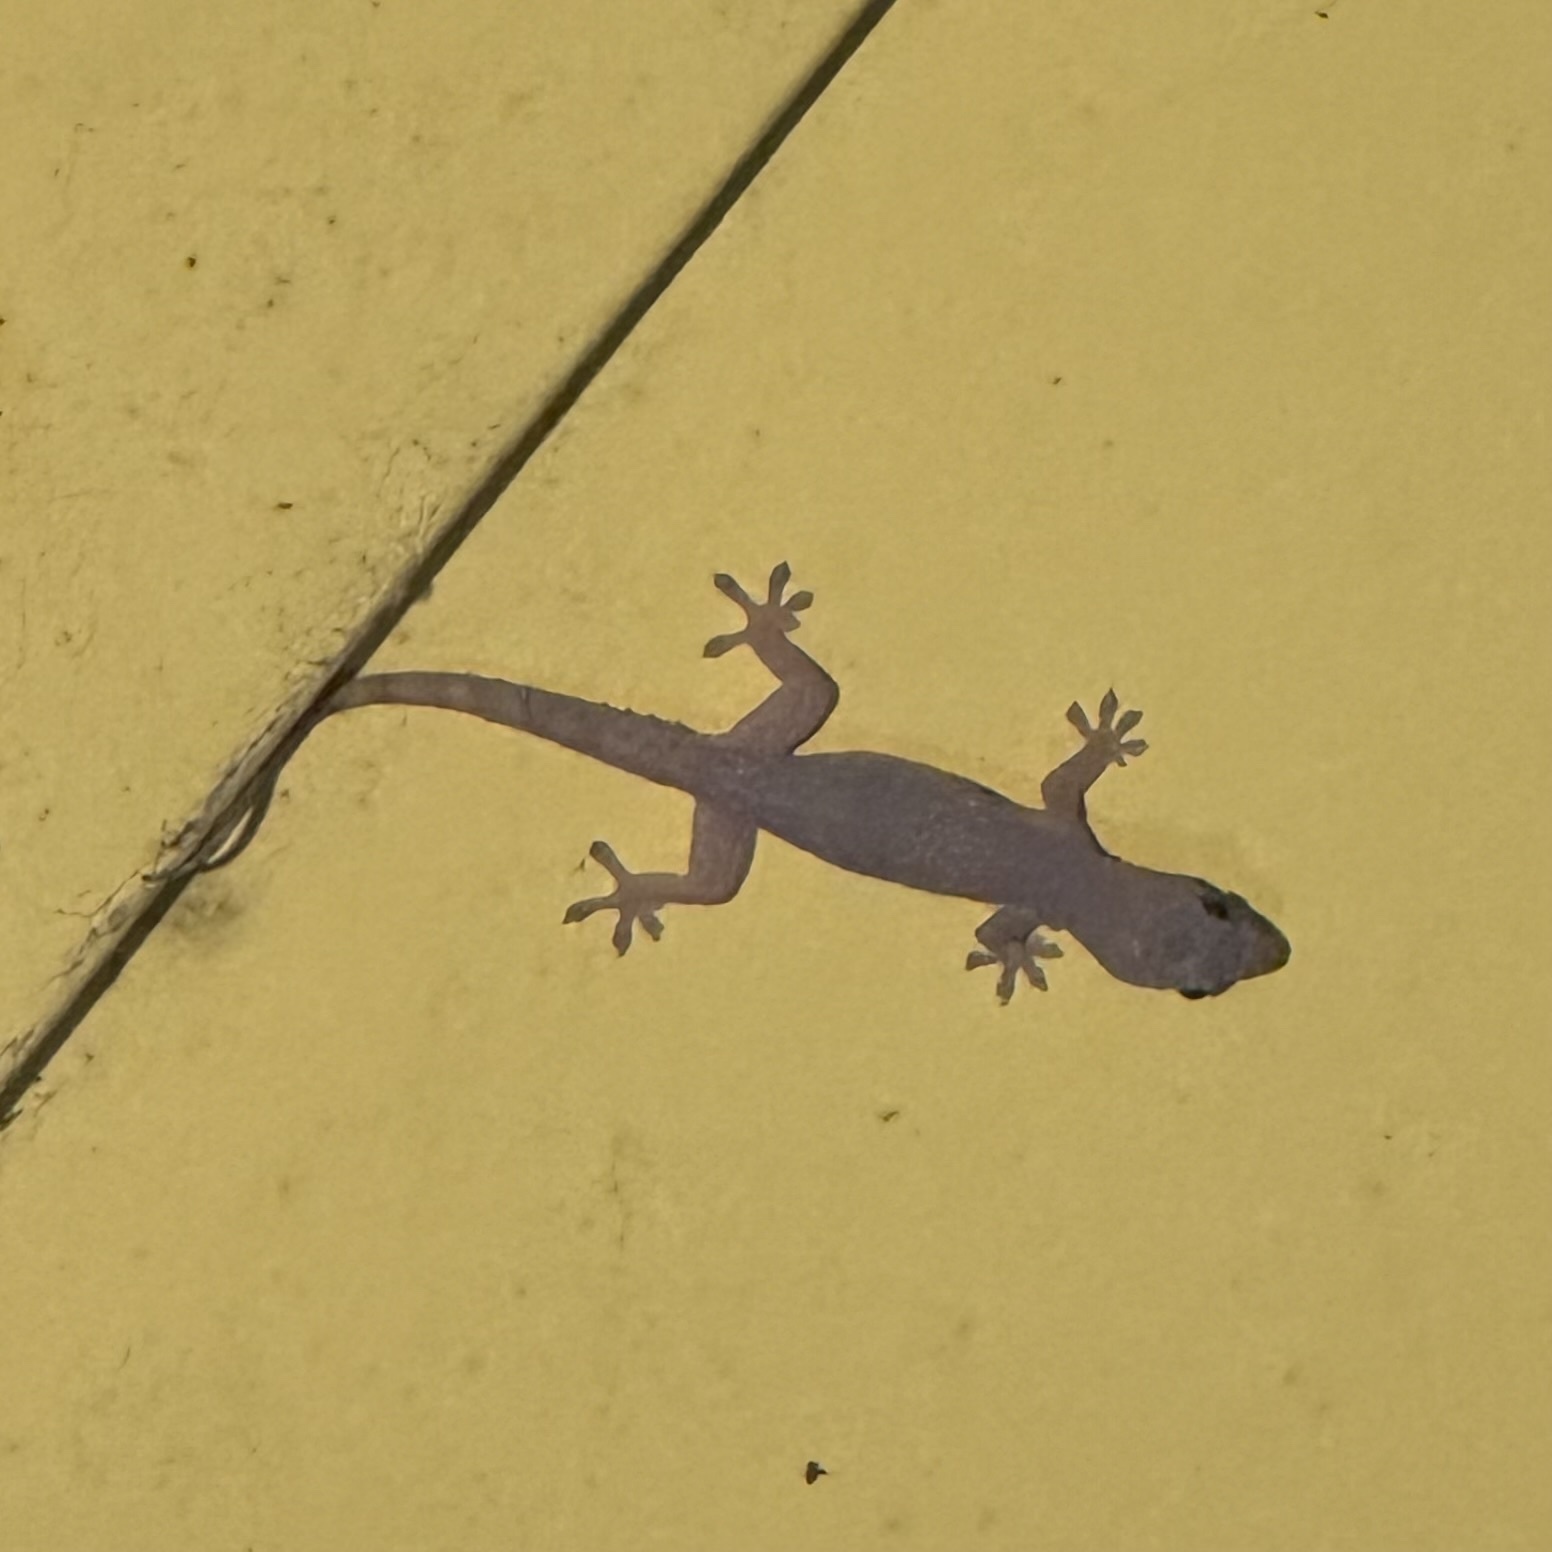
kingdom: Animalia
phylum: Chordata
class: Squamata
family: Gekkonidae
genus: Hemidactylus
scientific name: Hemidactylus frenatus
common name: Common house gecko
